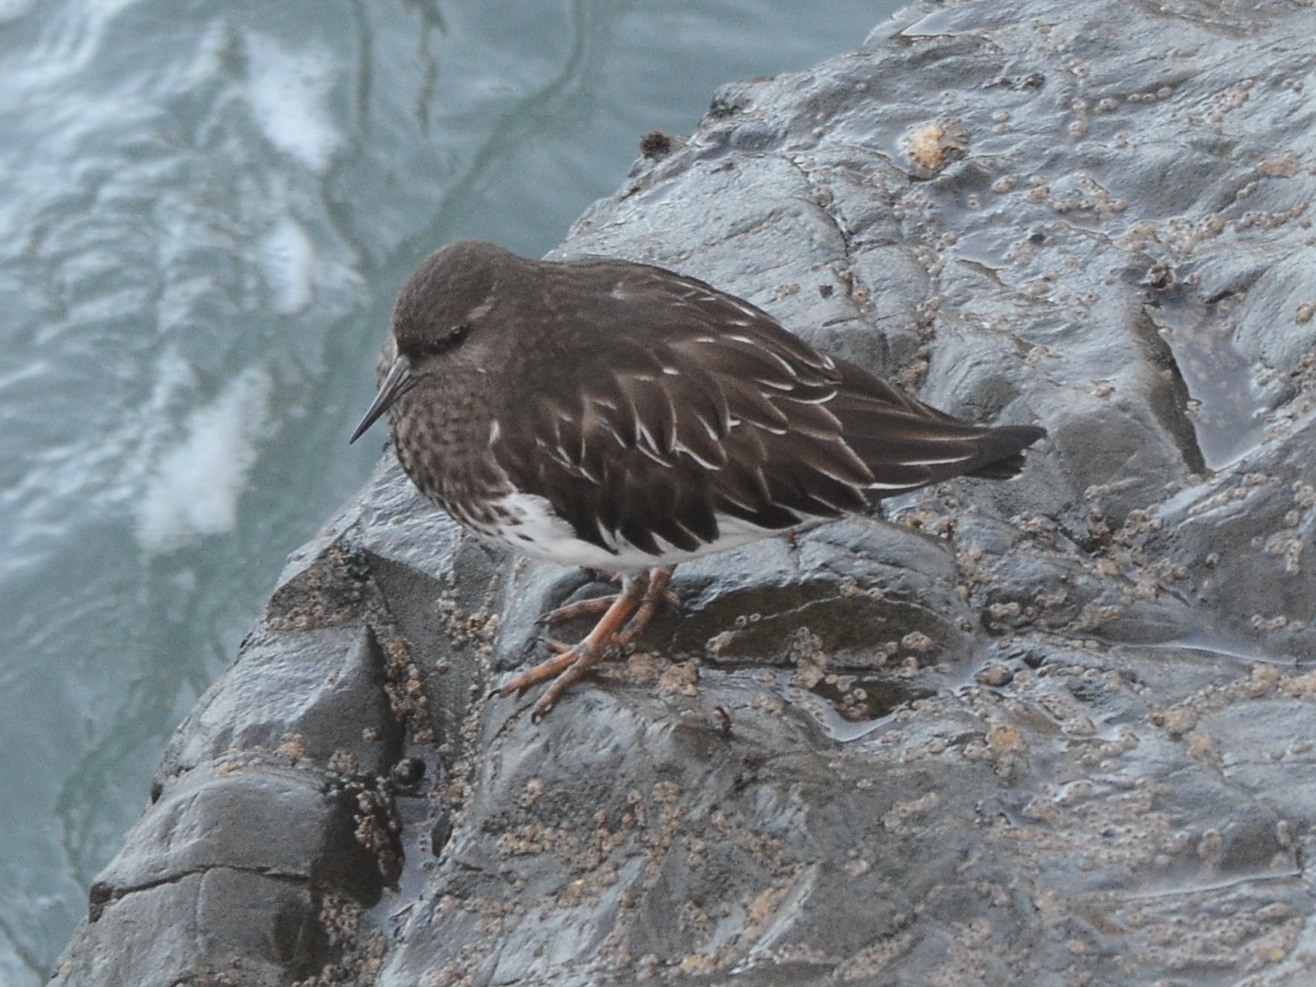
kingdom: Animalia
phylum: Chordata
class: Aves
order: Charadriiformes
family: Scolopacidae
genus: Arenaria
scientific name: Arenaria melanocephala
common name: Black turnstone
